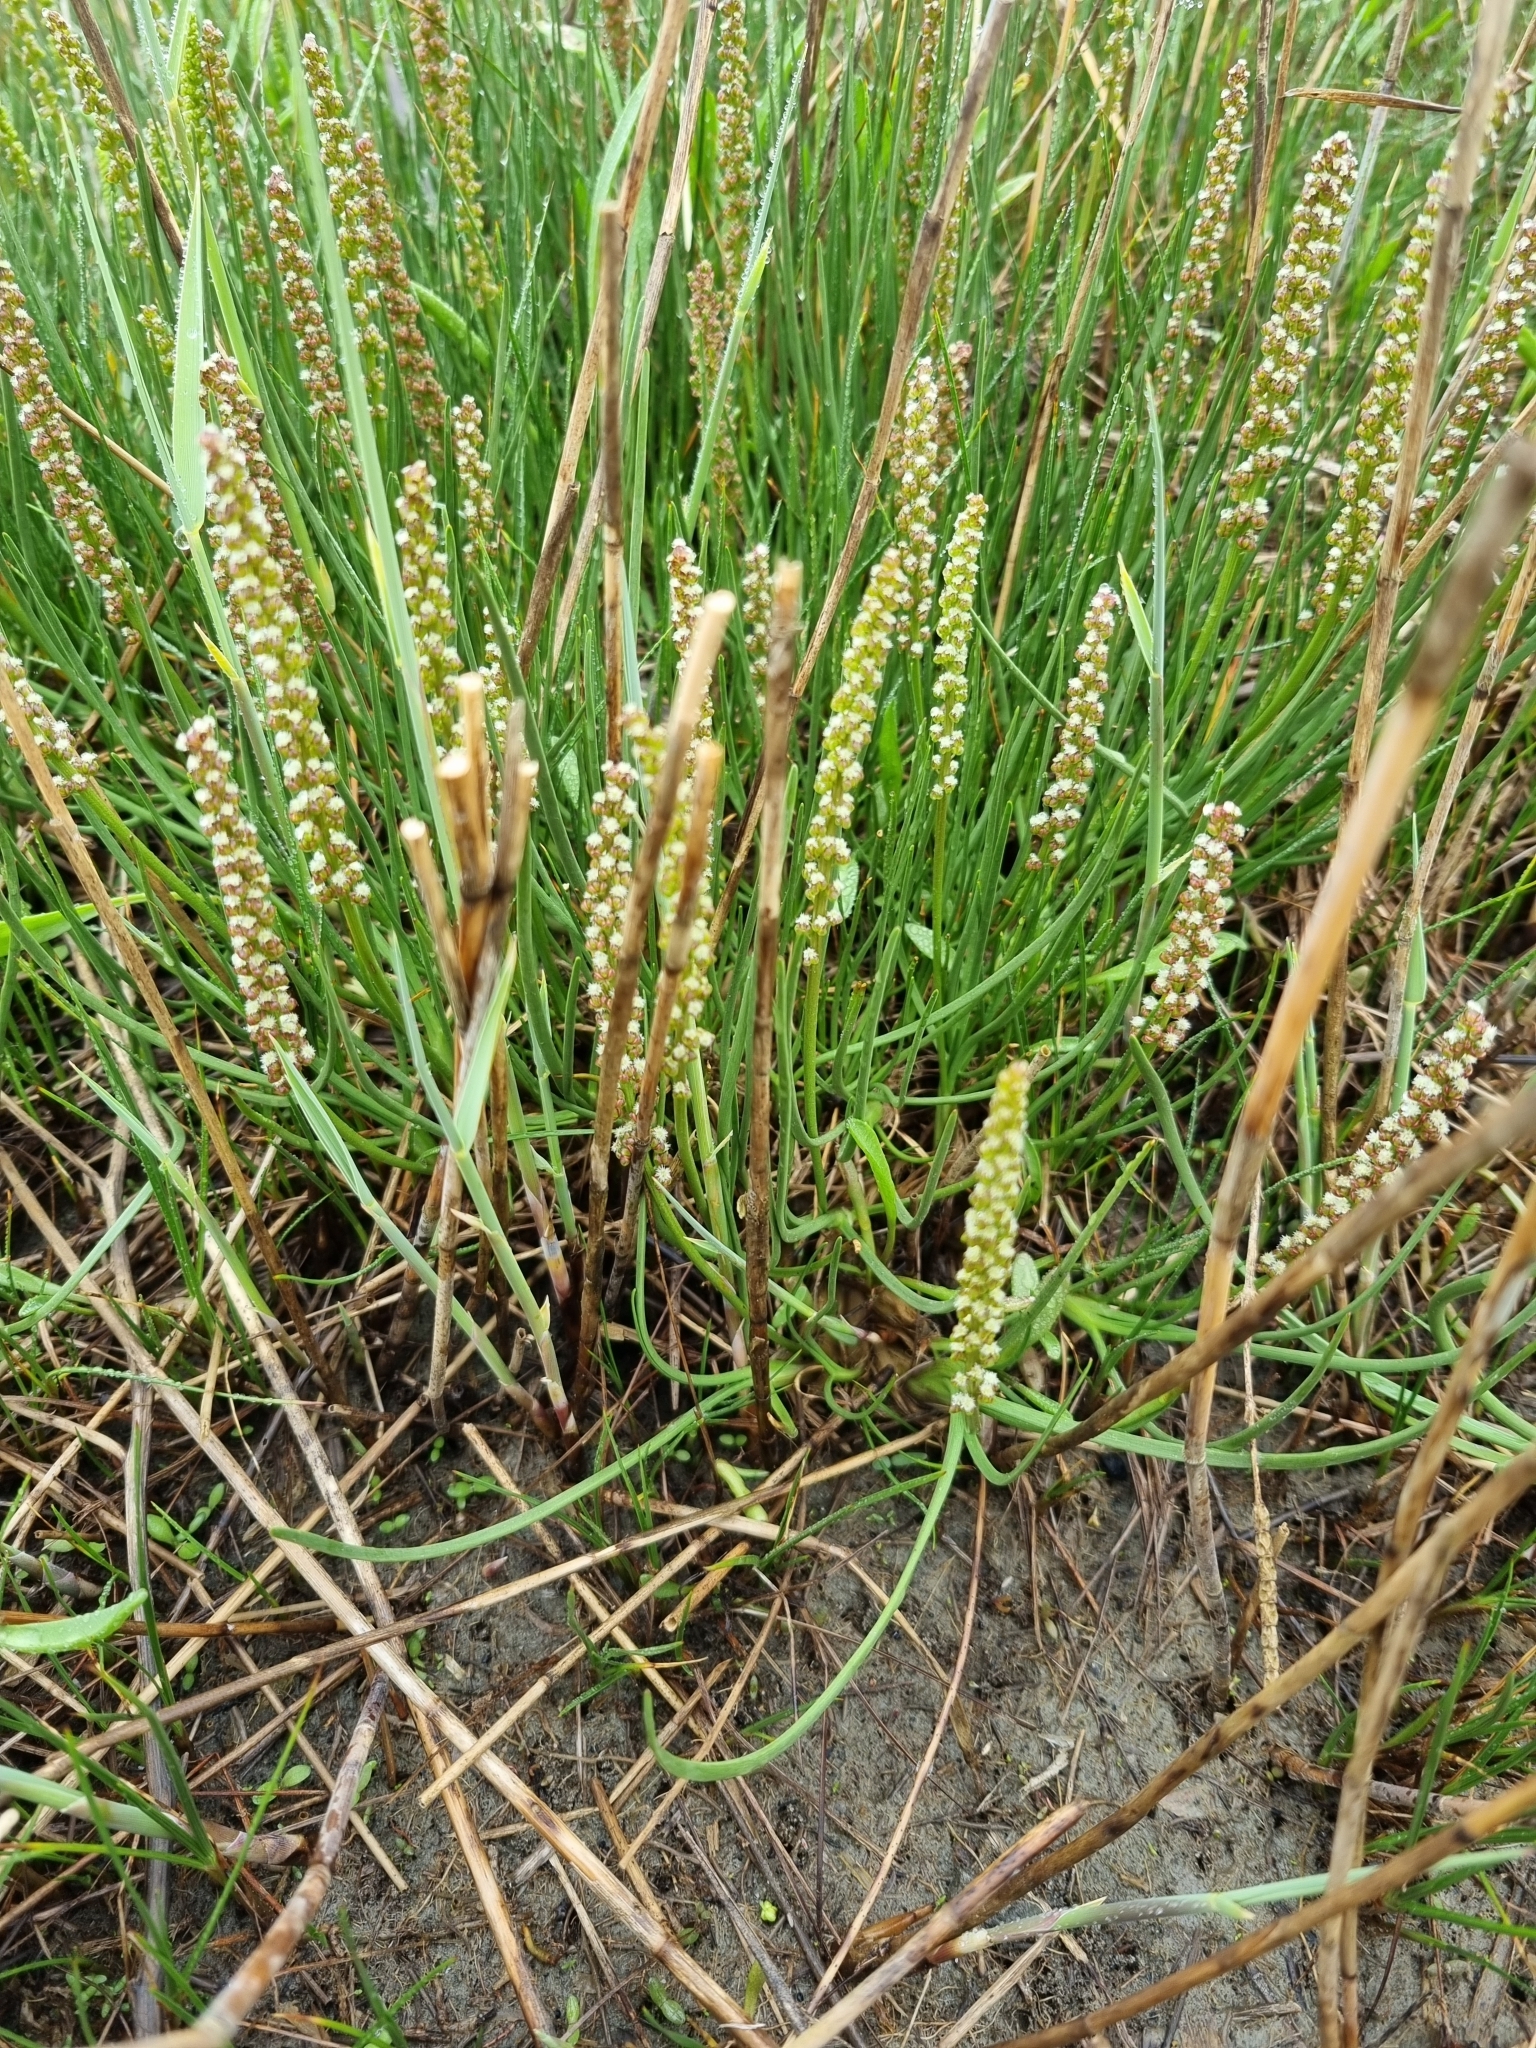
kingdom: Plantae
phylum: Tracheophyta
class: Liliopsida
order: Alismatales
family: Juncaginaceae
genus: Triglochin
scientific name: Triglochin maritima
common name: Sea arrowgrass
